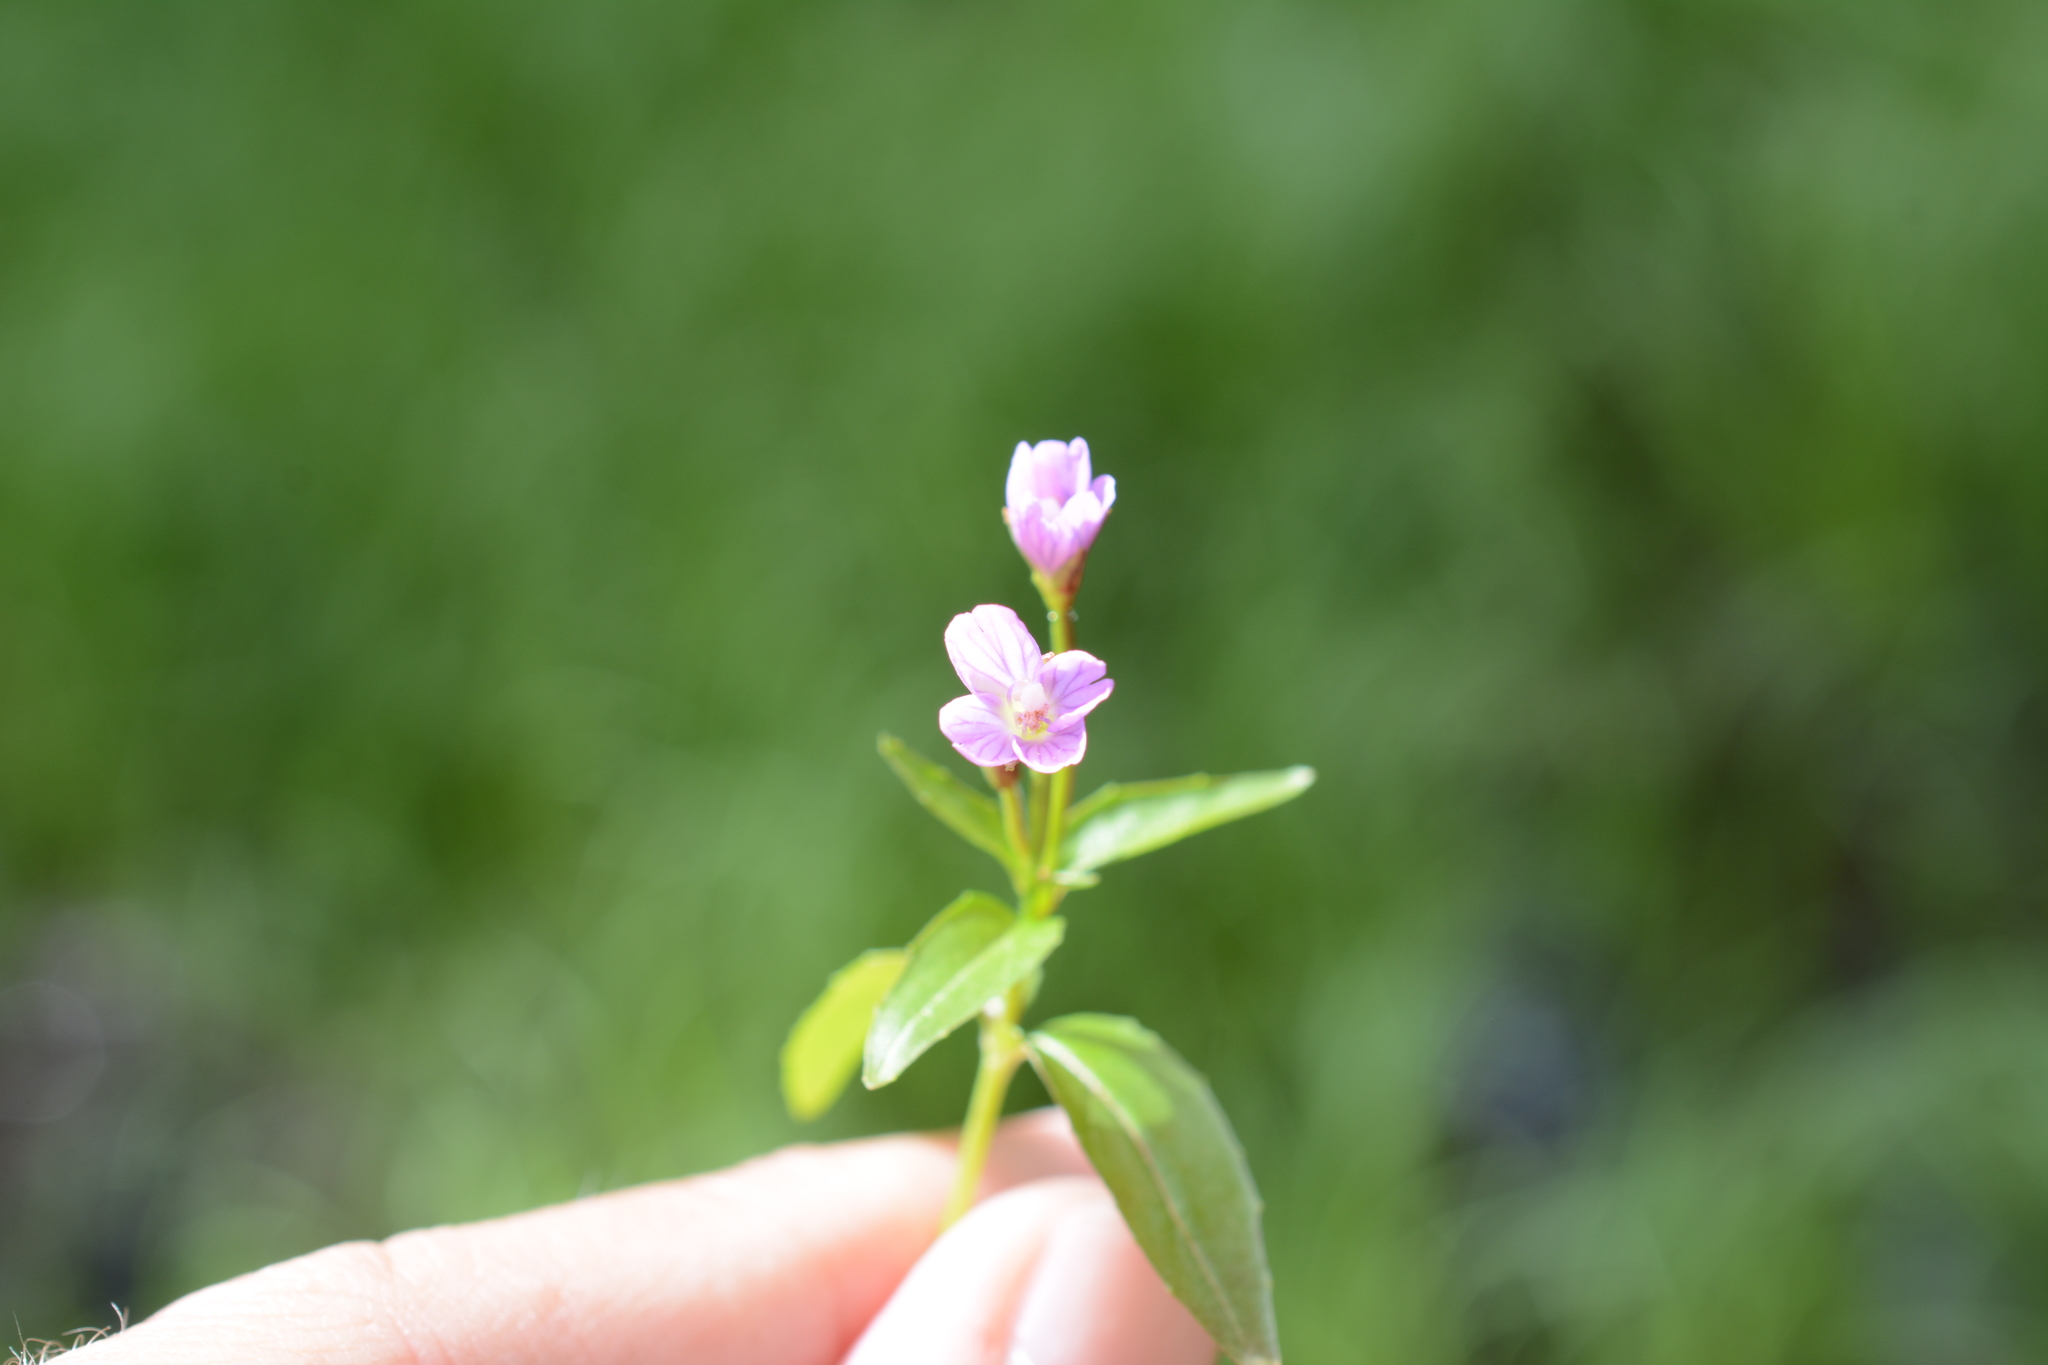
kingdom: Plantae
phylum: Tracheophyta
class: Magnoliopsida
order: Myrtales
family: Onagraceae
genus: Epilobium
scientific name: Epilobium hornemannii
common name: Hornemann's willowherb
